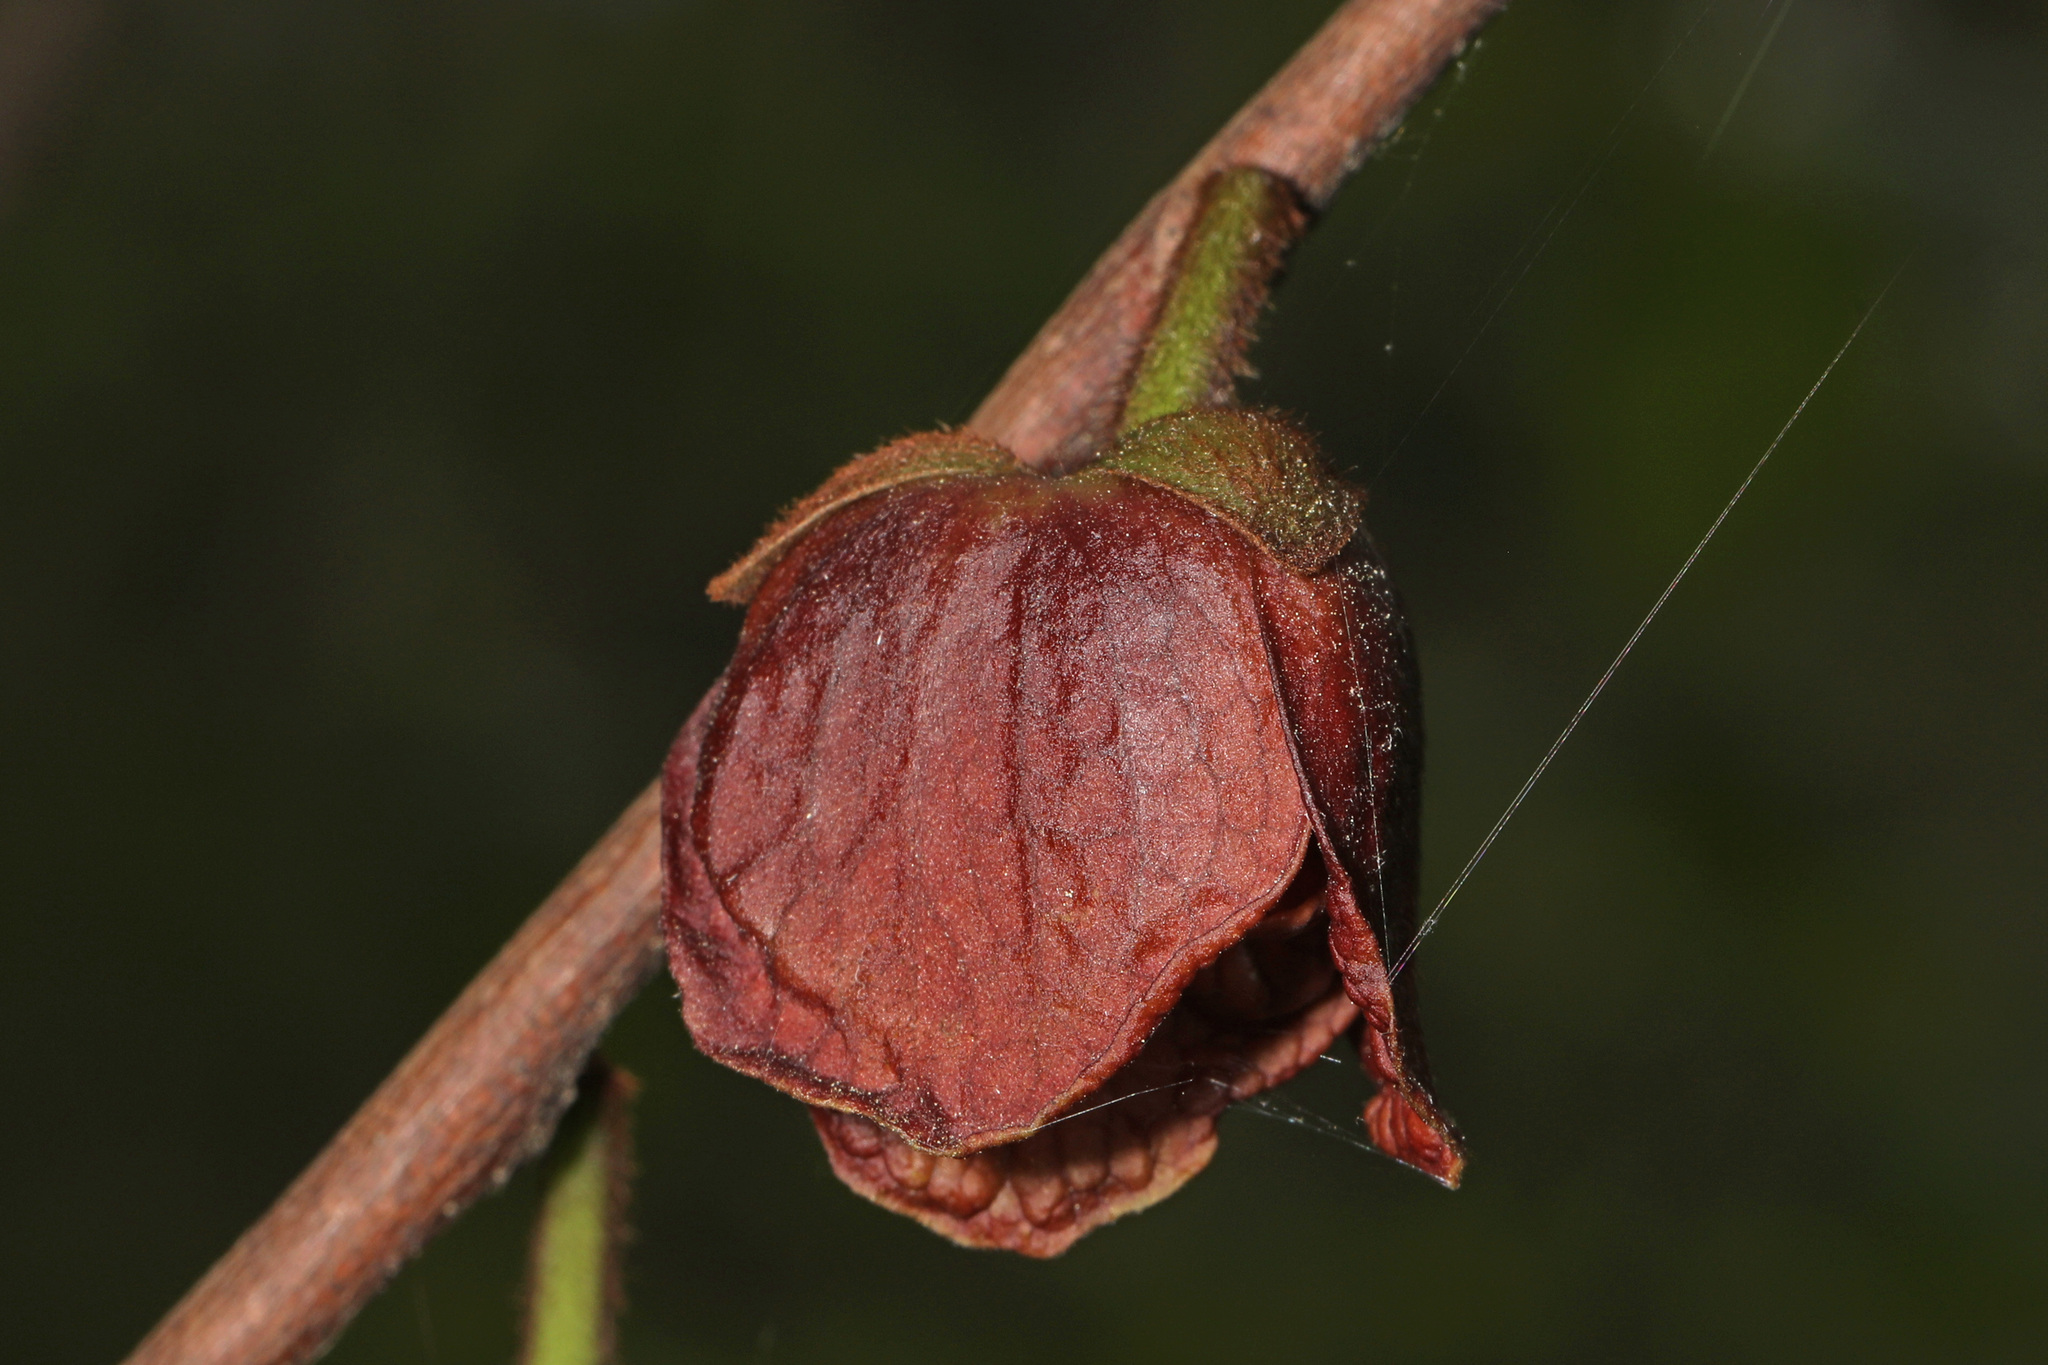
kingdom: Plantae
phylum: Tracheophyta
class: Magnoliopsida
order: Magnoliales
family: Annonaceae
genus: Asimina
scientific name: Asimina triloba
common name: Dog-banana
